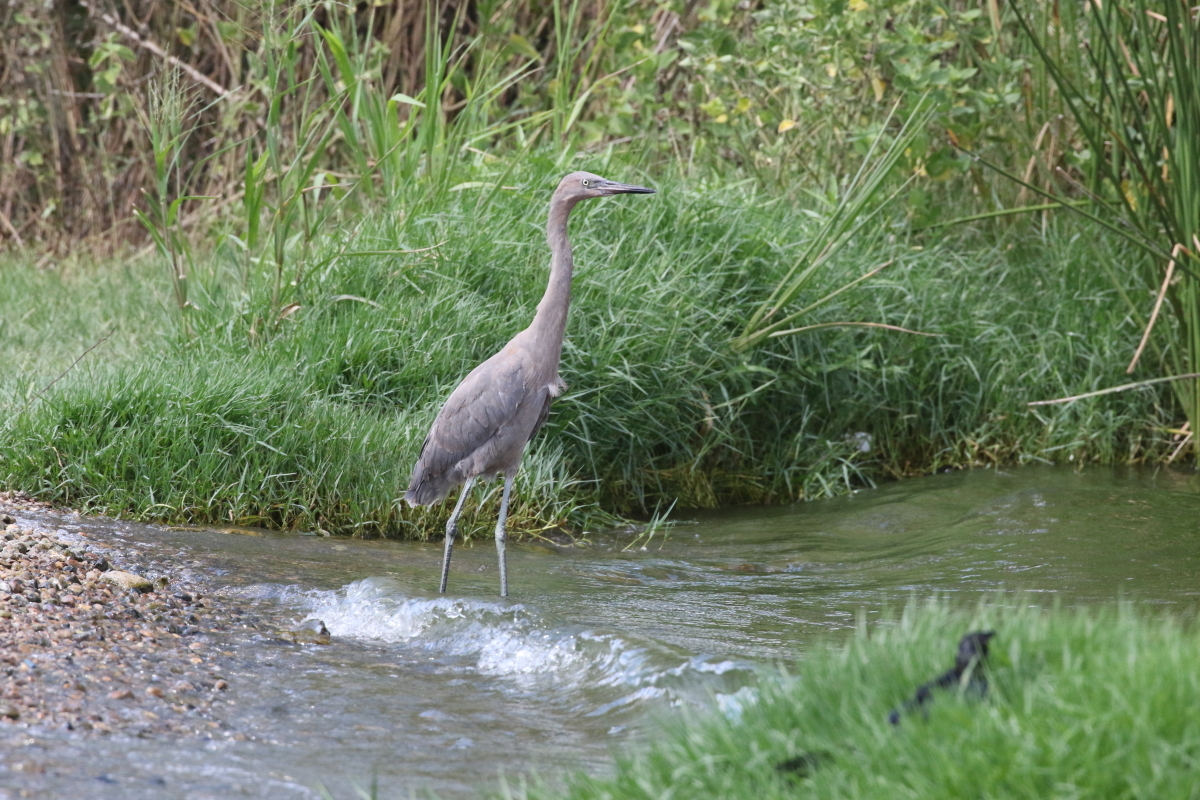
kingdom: Animalia
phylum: Chordata
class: Aves
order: Pelecaniformes
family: Ardeidae
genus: Egretta
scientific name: Egretta rufescens
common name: Reddish egret
